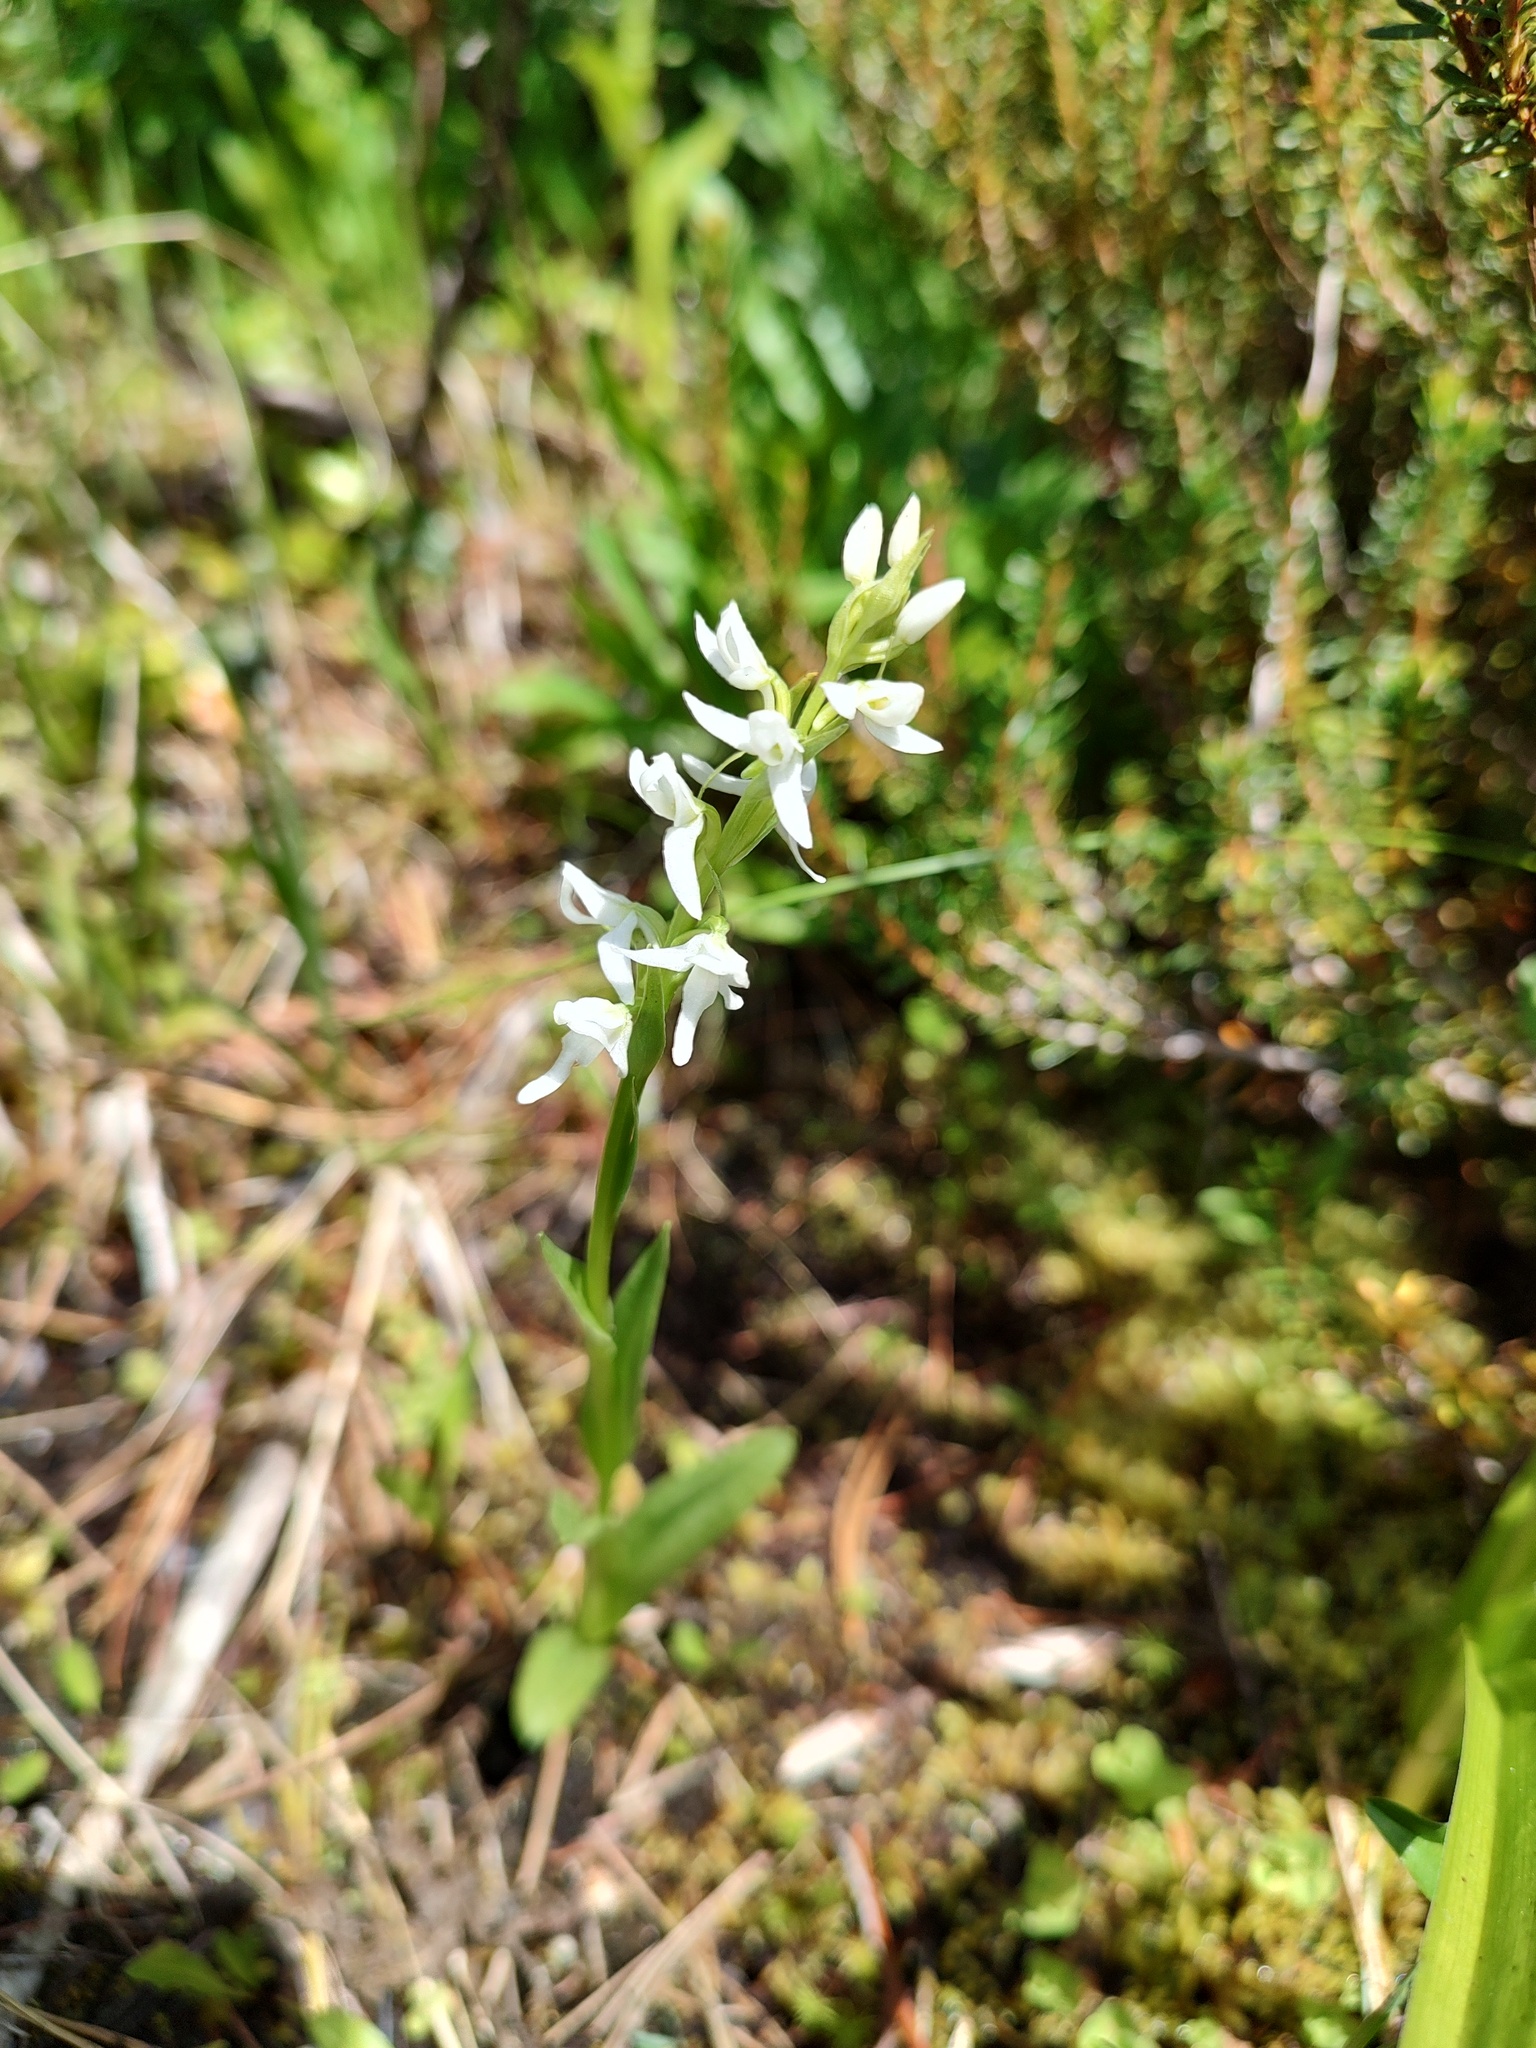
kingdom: Plantae
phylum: Tracheophyta
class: Liliopsida
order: Asparagales
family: Orchidaceae
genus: Platanthera
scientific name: Platanthera dilatata
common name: Bog candles
